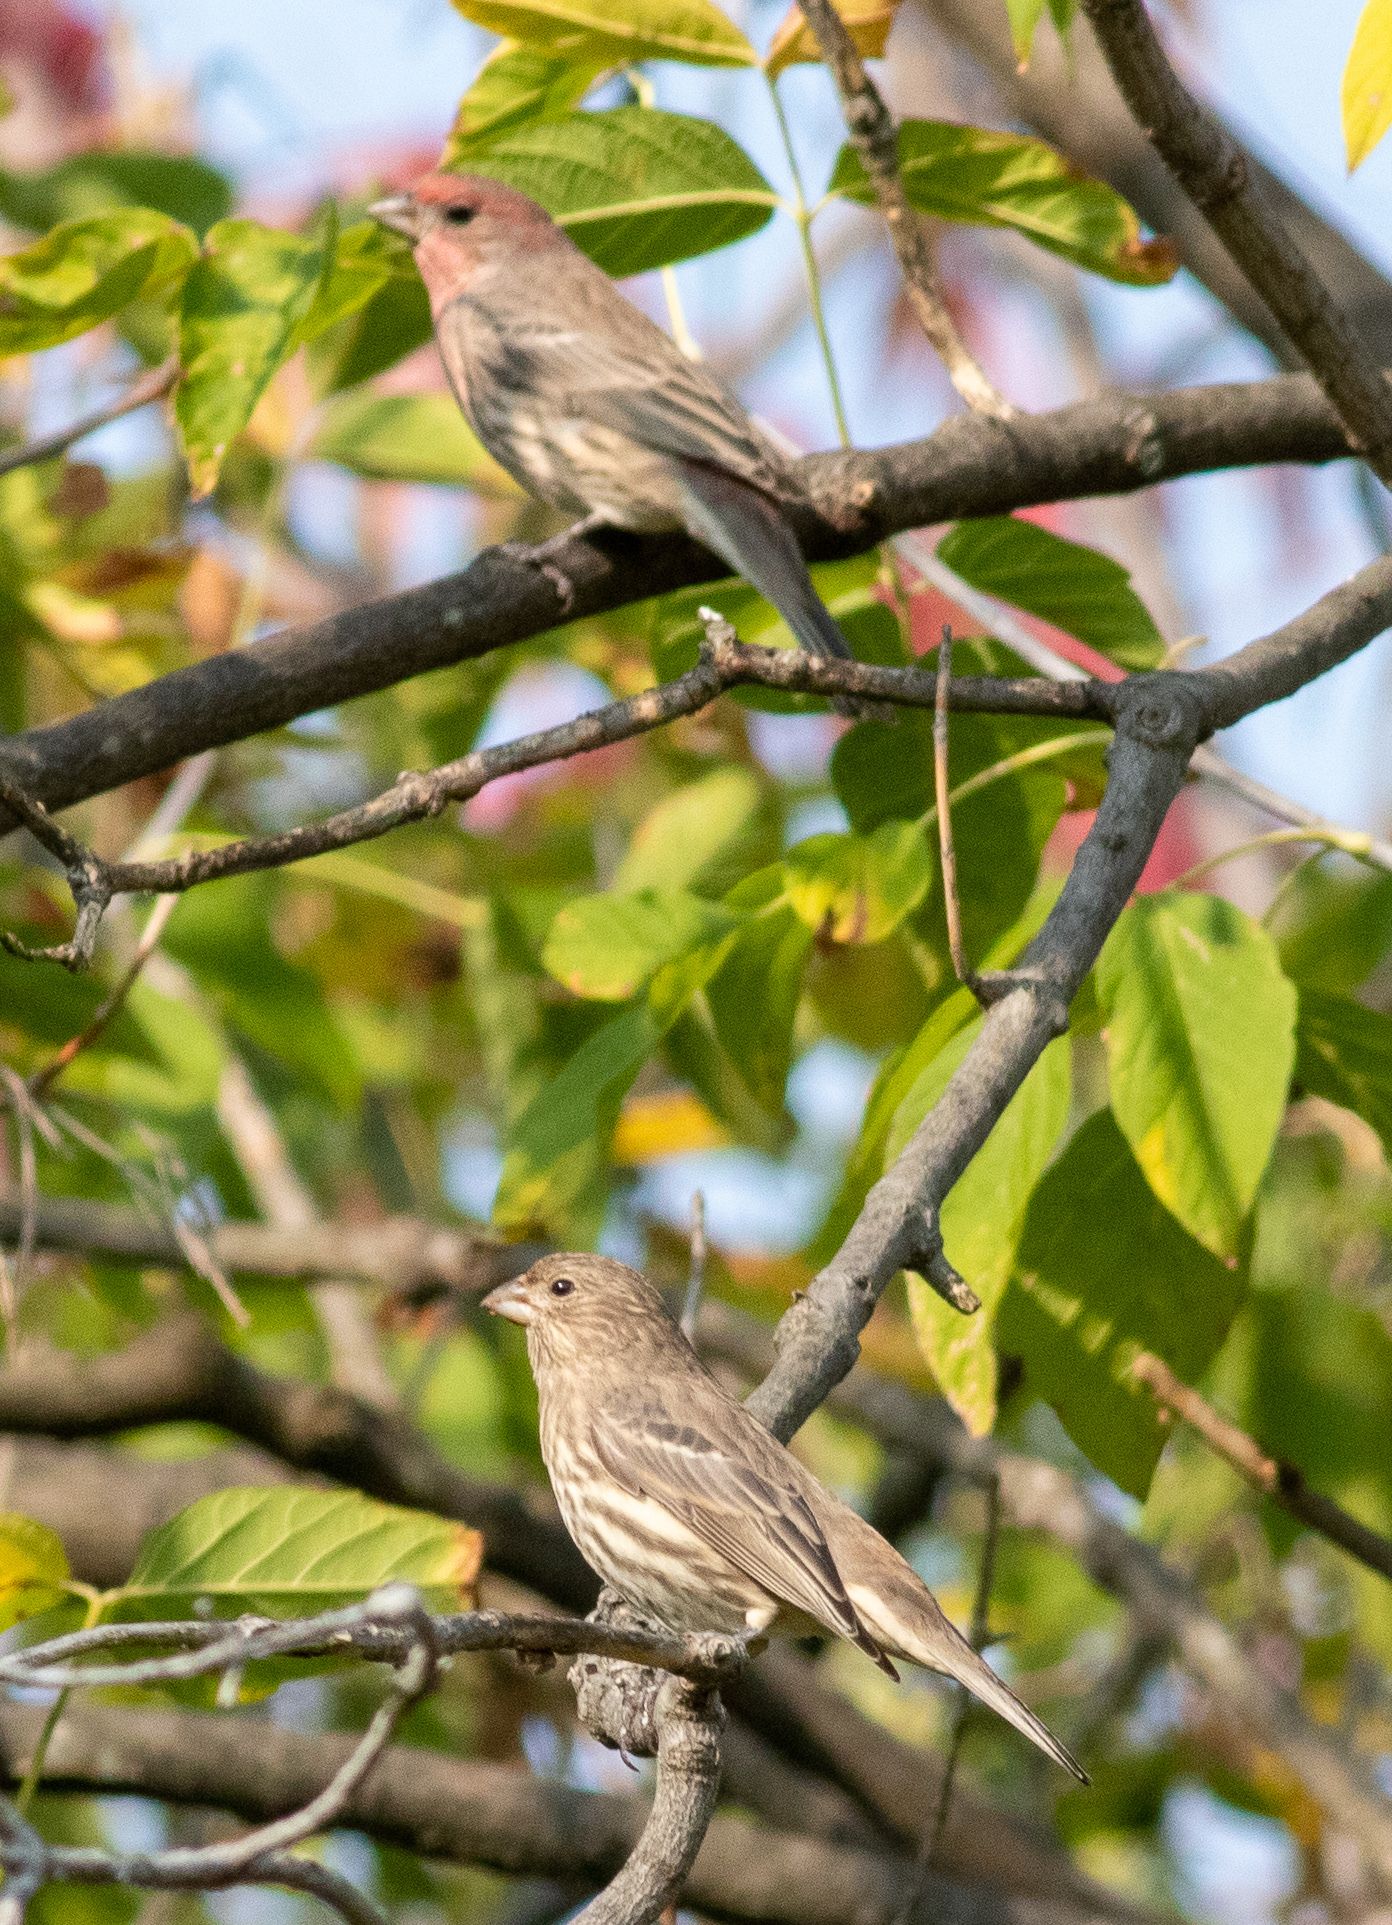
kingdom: Animalia
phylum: Chordata
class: Aves
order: Passeriformes
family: Fringillidae
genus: Haemorhous
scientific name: Haemorhous mexicanus
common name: House finch
